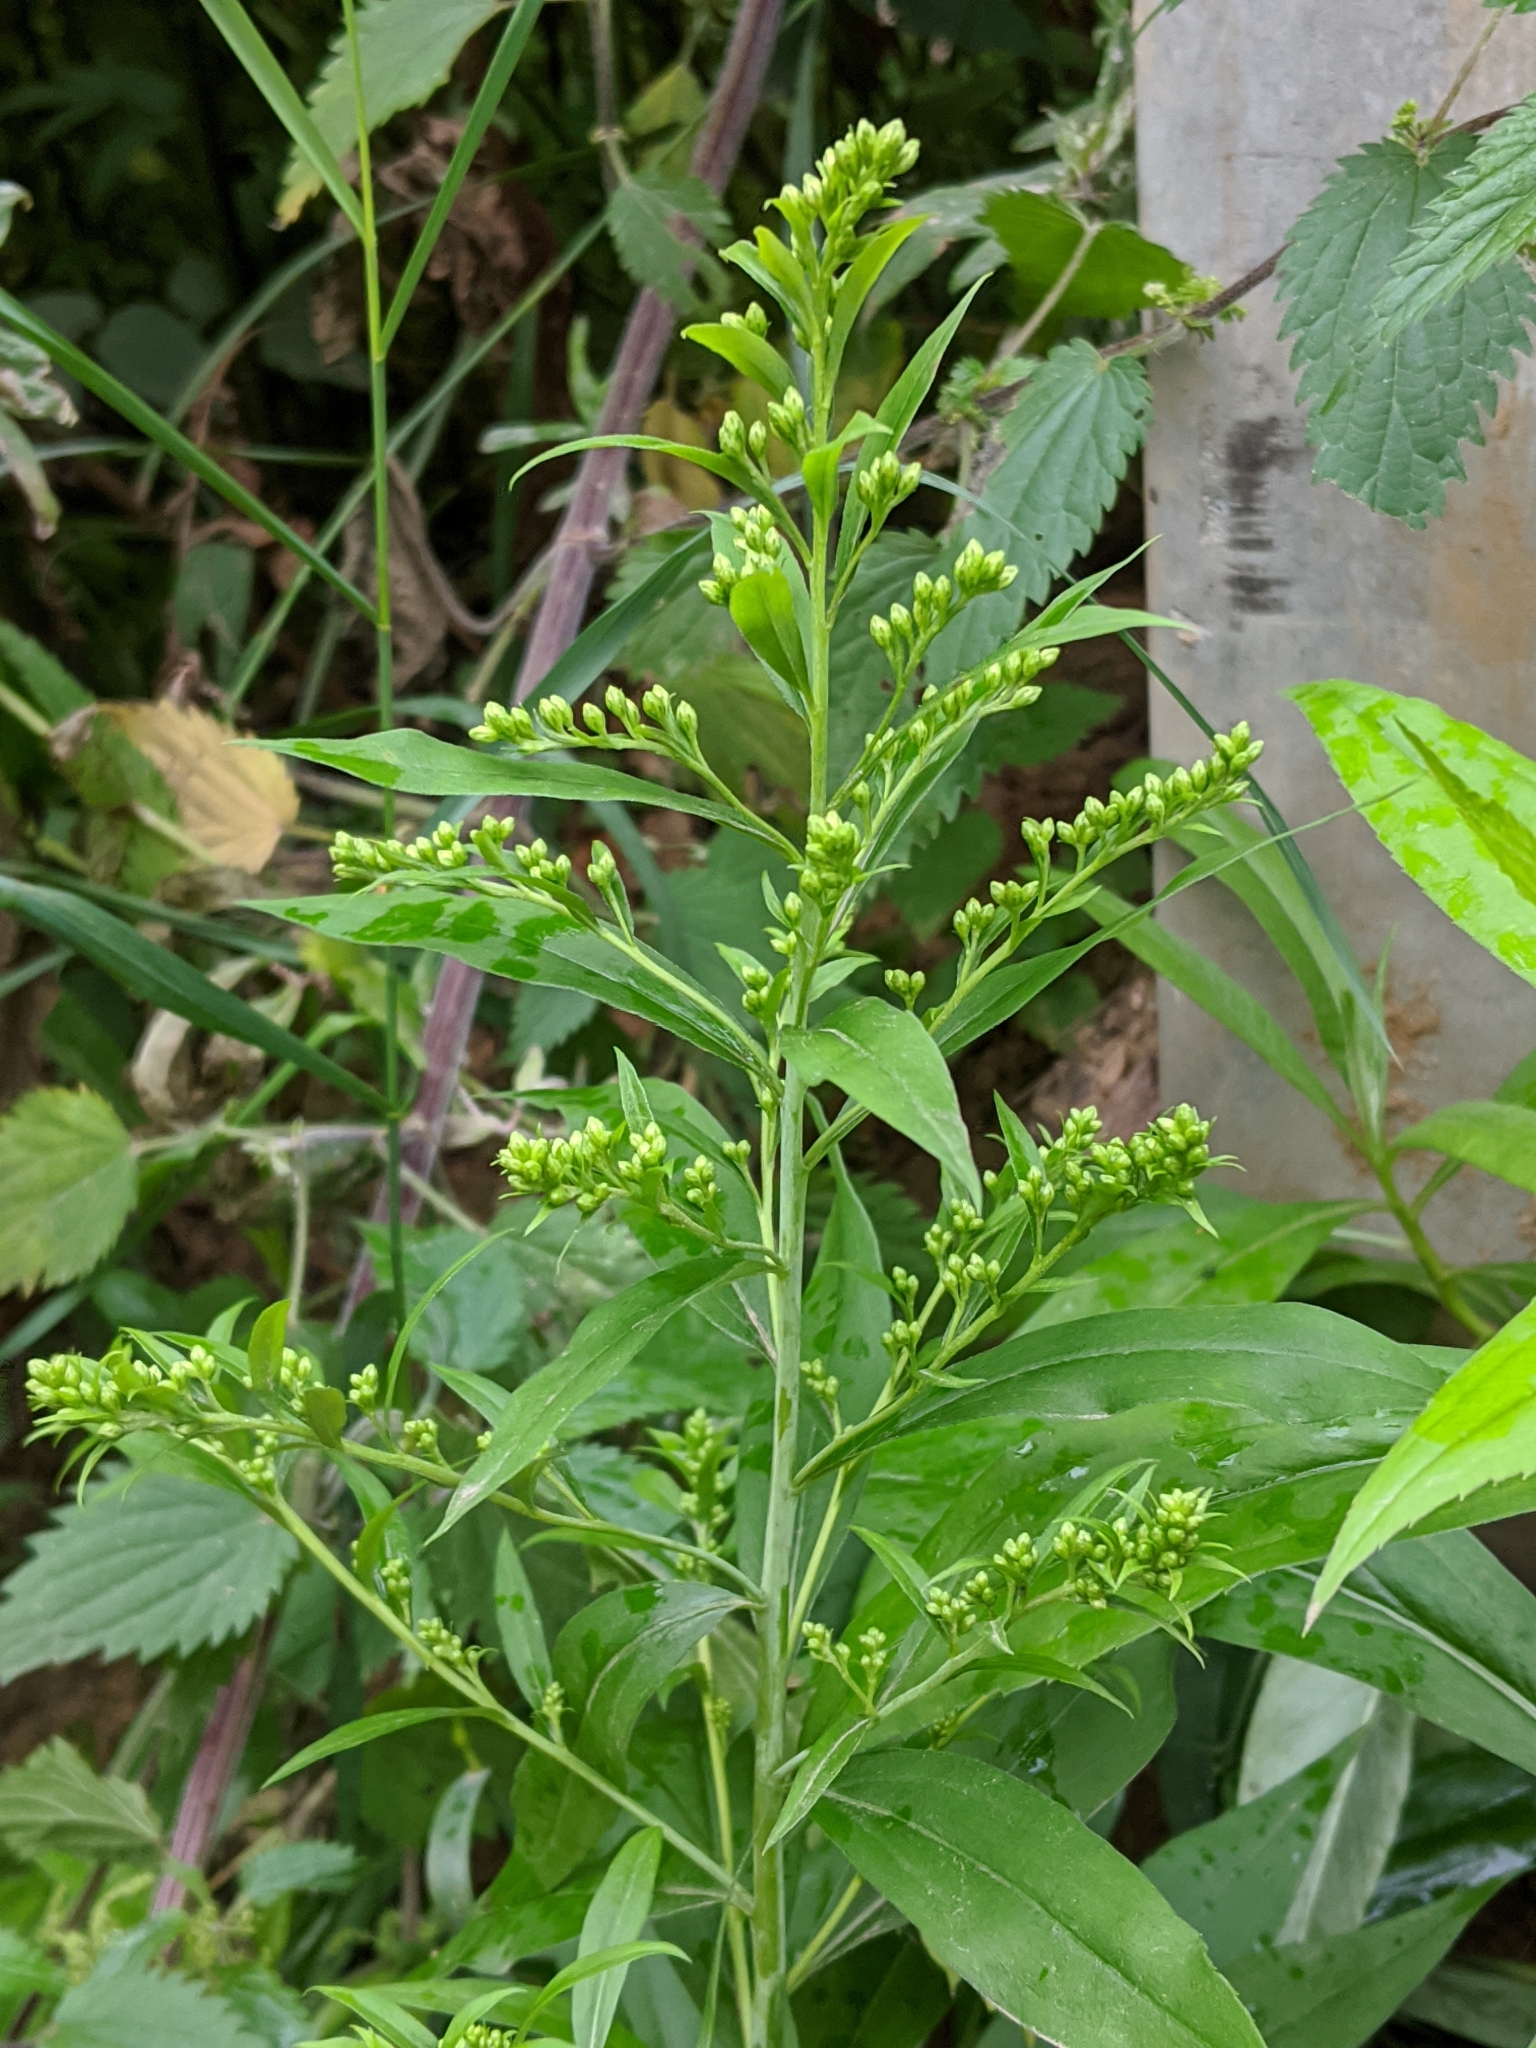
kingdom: Plantae
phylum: Tracheophyta
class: Magnoliopsida
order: Asterales
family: Asteraceae
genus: Solidago
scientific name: Solidago gigantea
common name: Giant goldenrod
